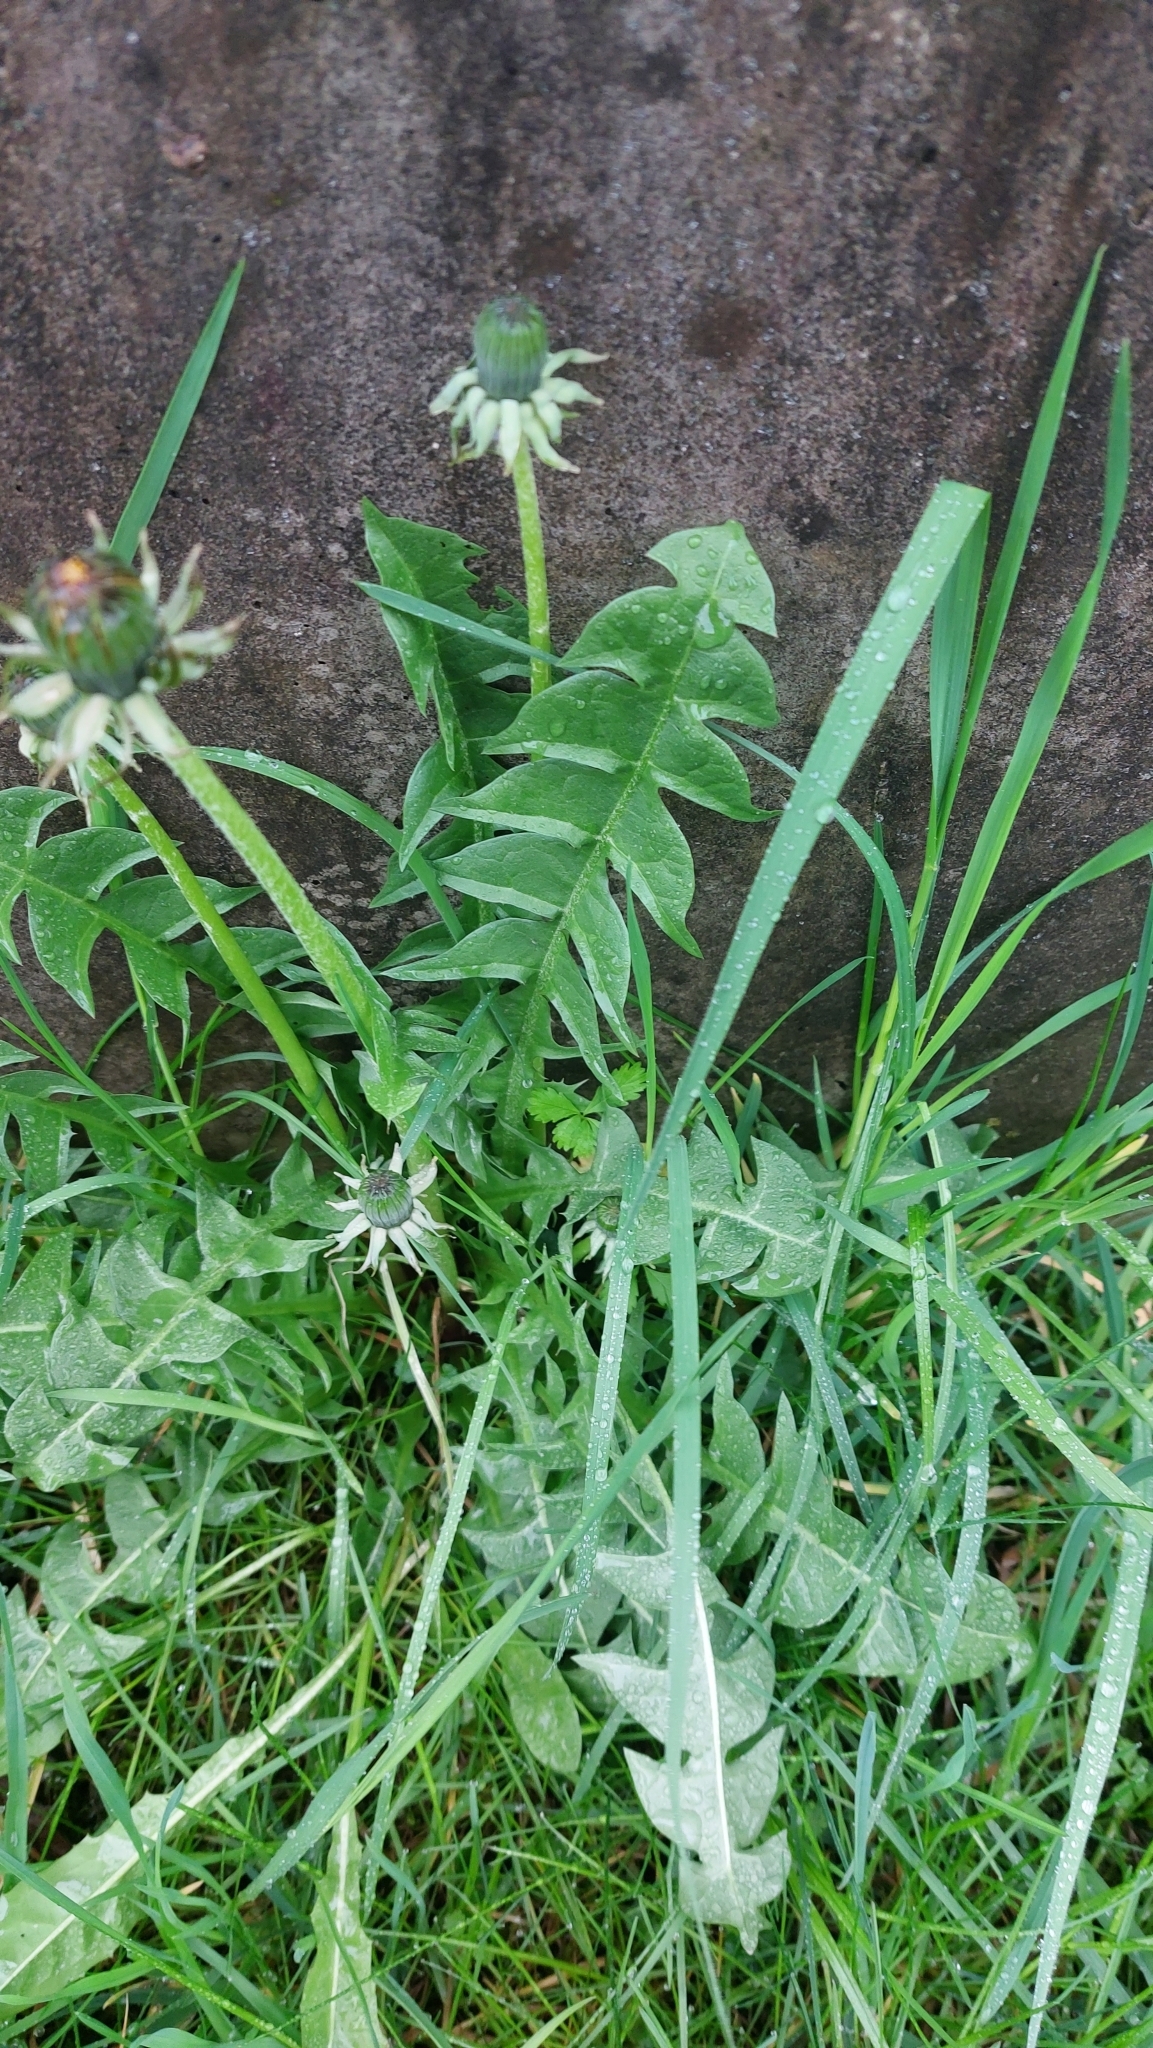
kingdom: Plantae
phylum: Tracheophyta
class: Magnoliopsida
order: Asterales
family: Asteraceae
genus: Taraxacum
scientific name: Taraxacum
